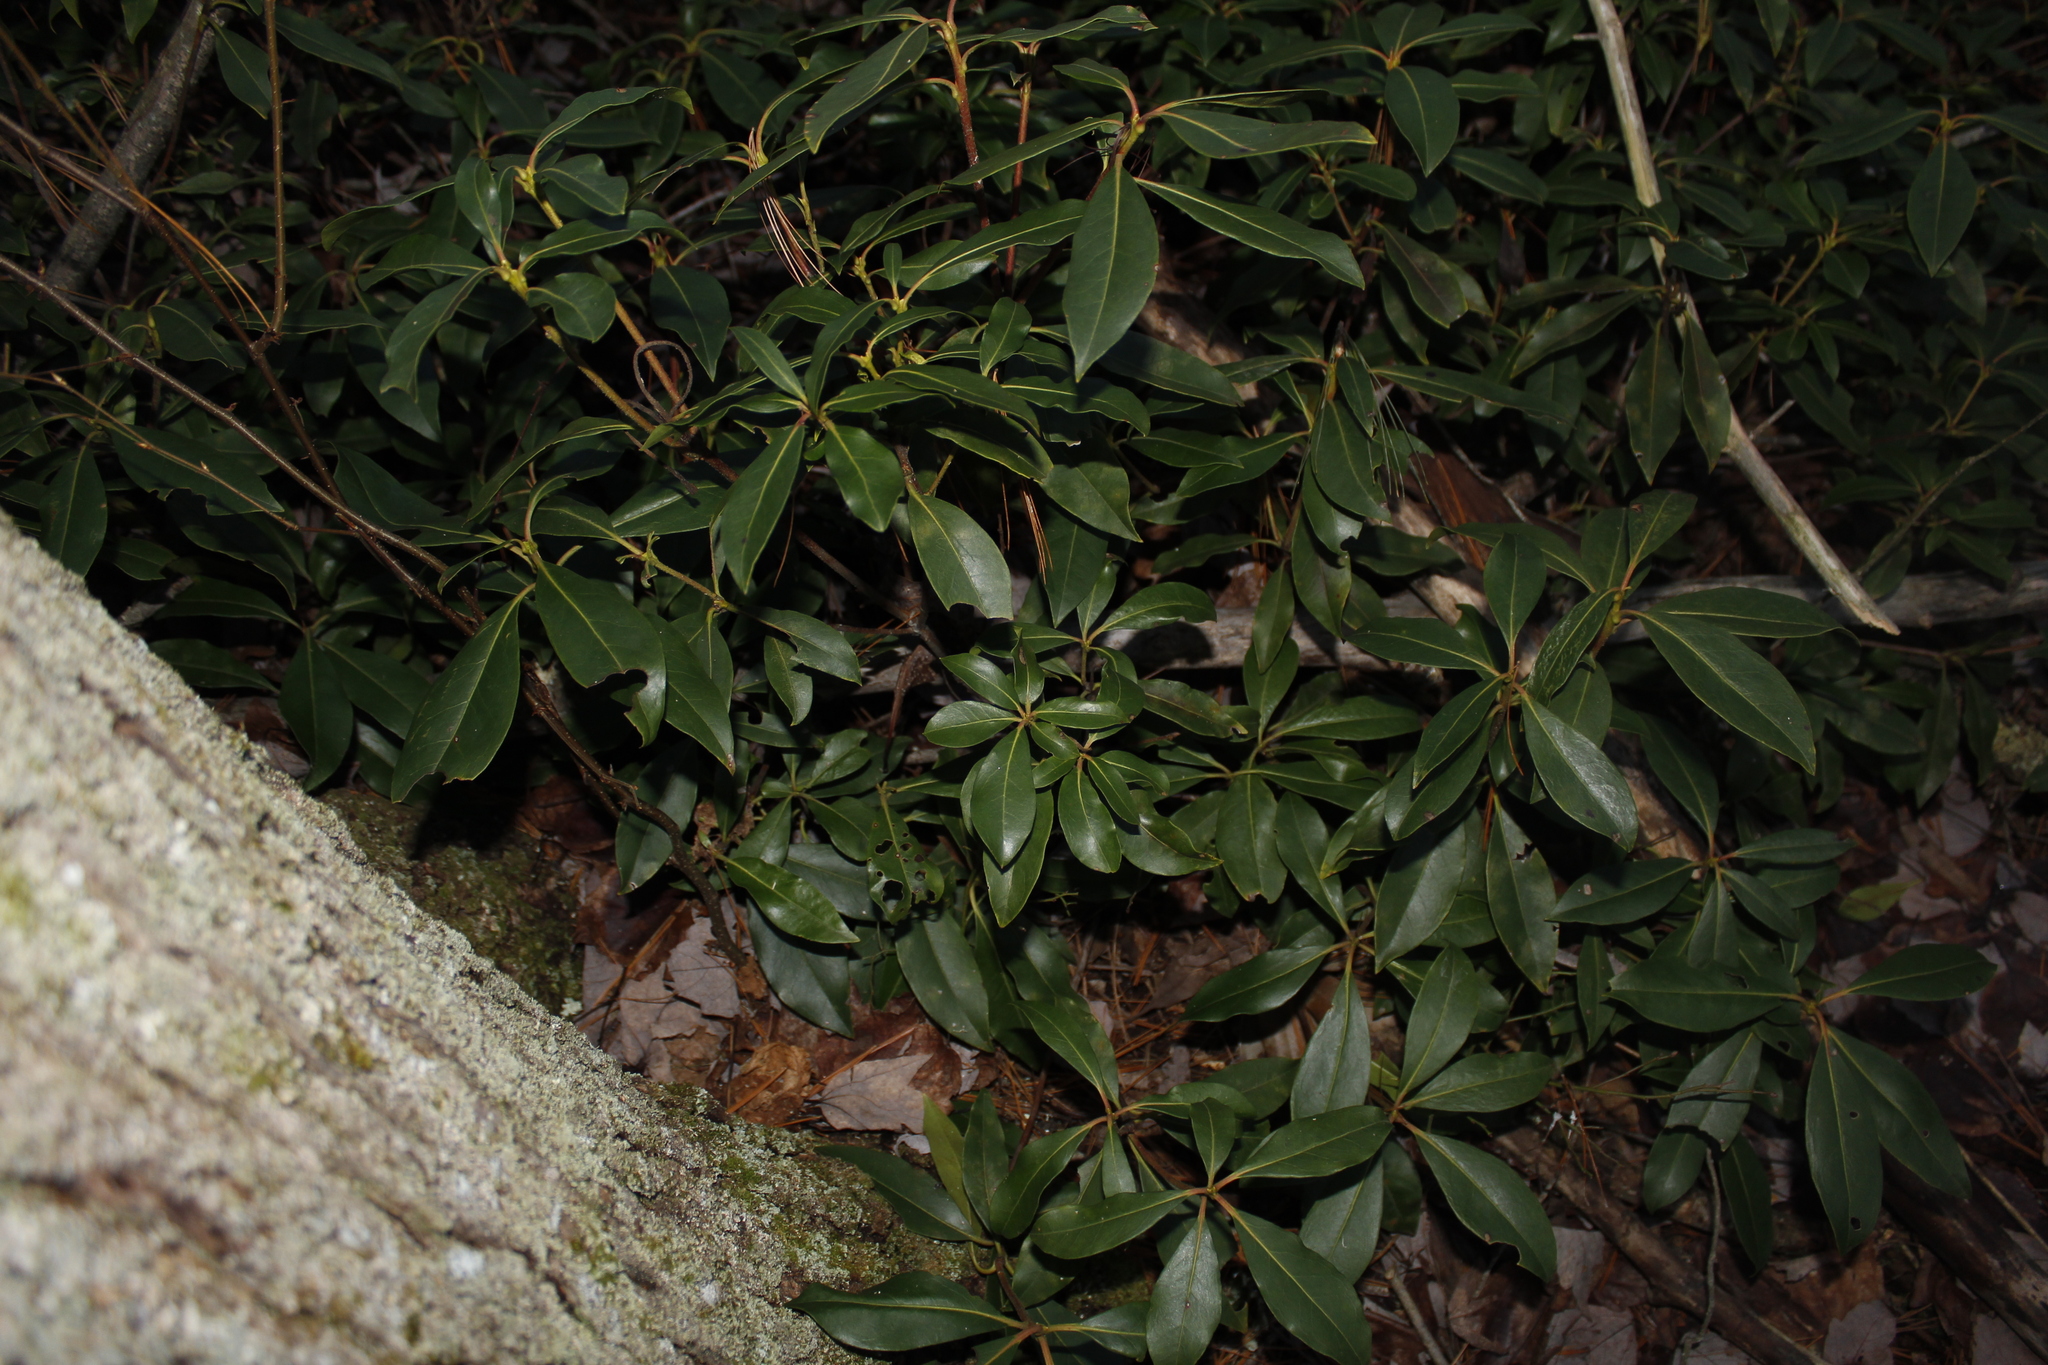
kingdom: Plantae
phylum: Tracheophyta
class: Magnoliopsida
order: Ericales
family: Ericaceae
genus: Kalmia
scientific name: Kalmia latifolia
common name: Mountain-laurel
